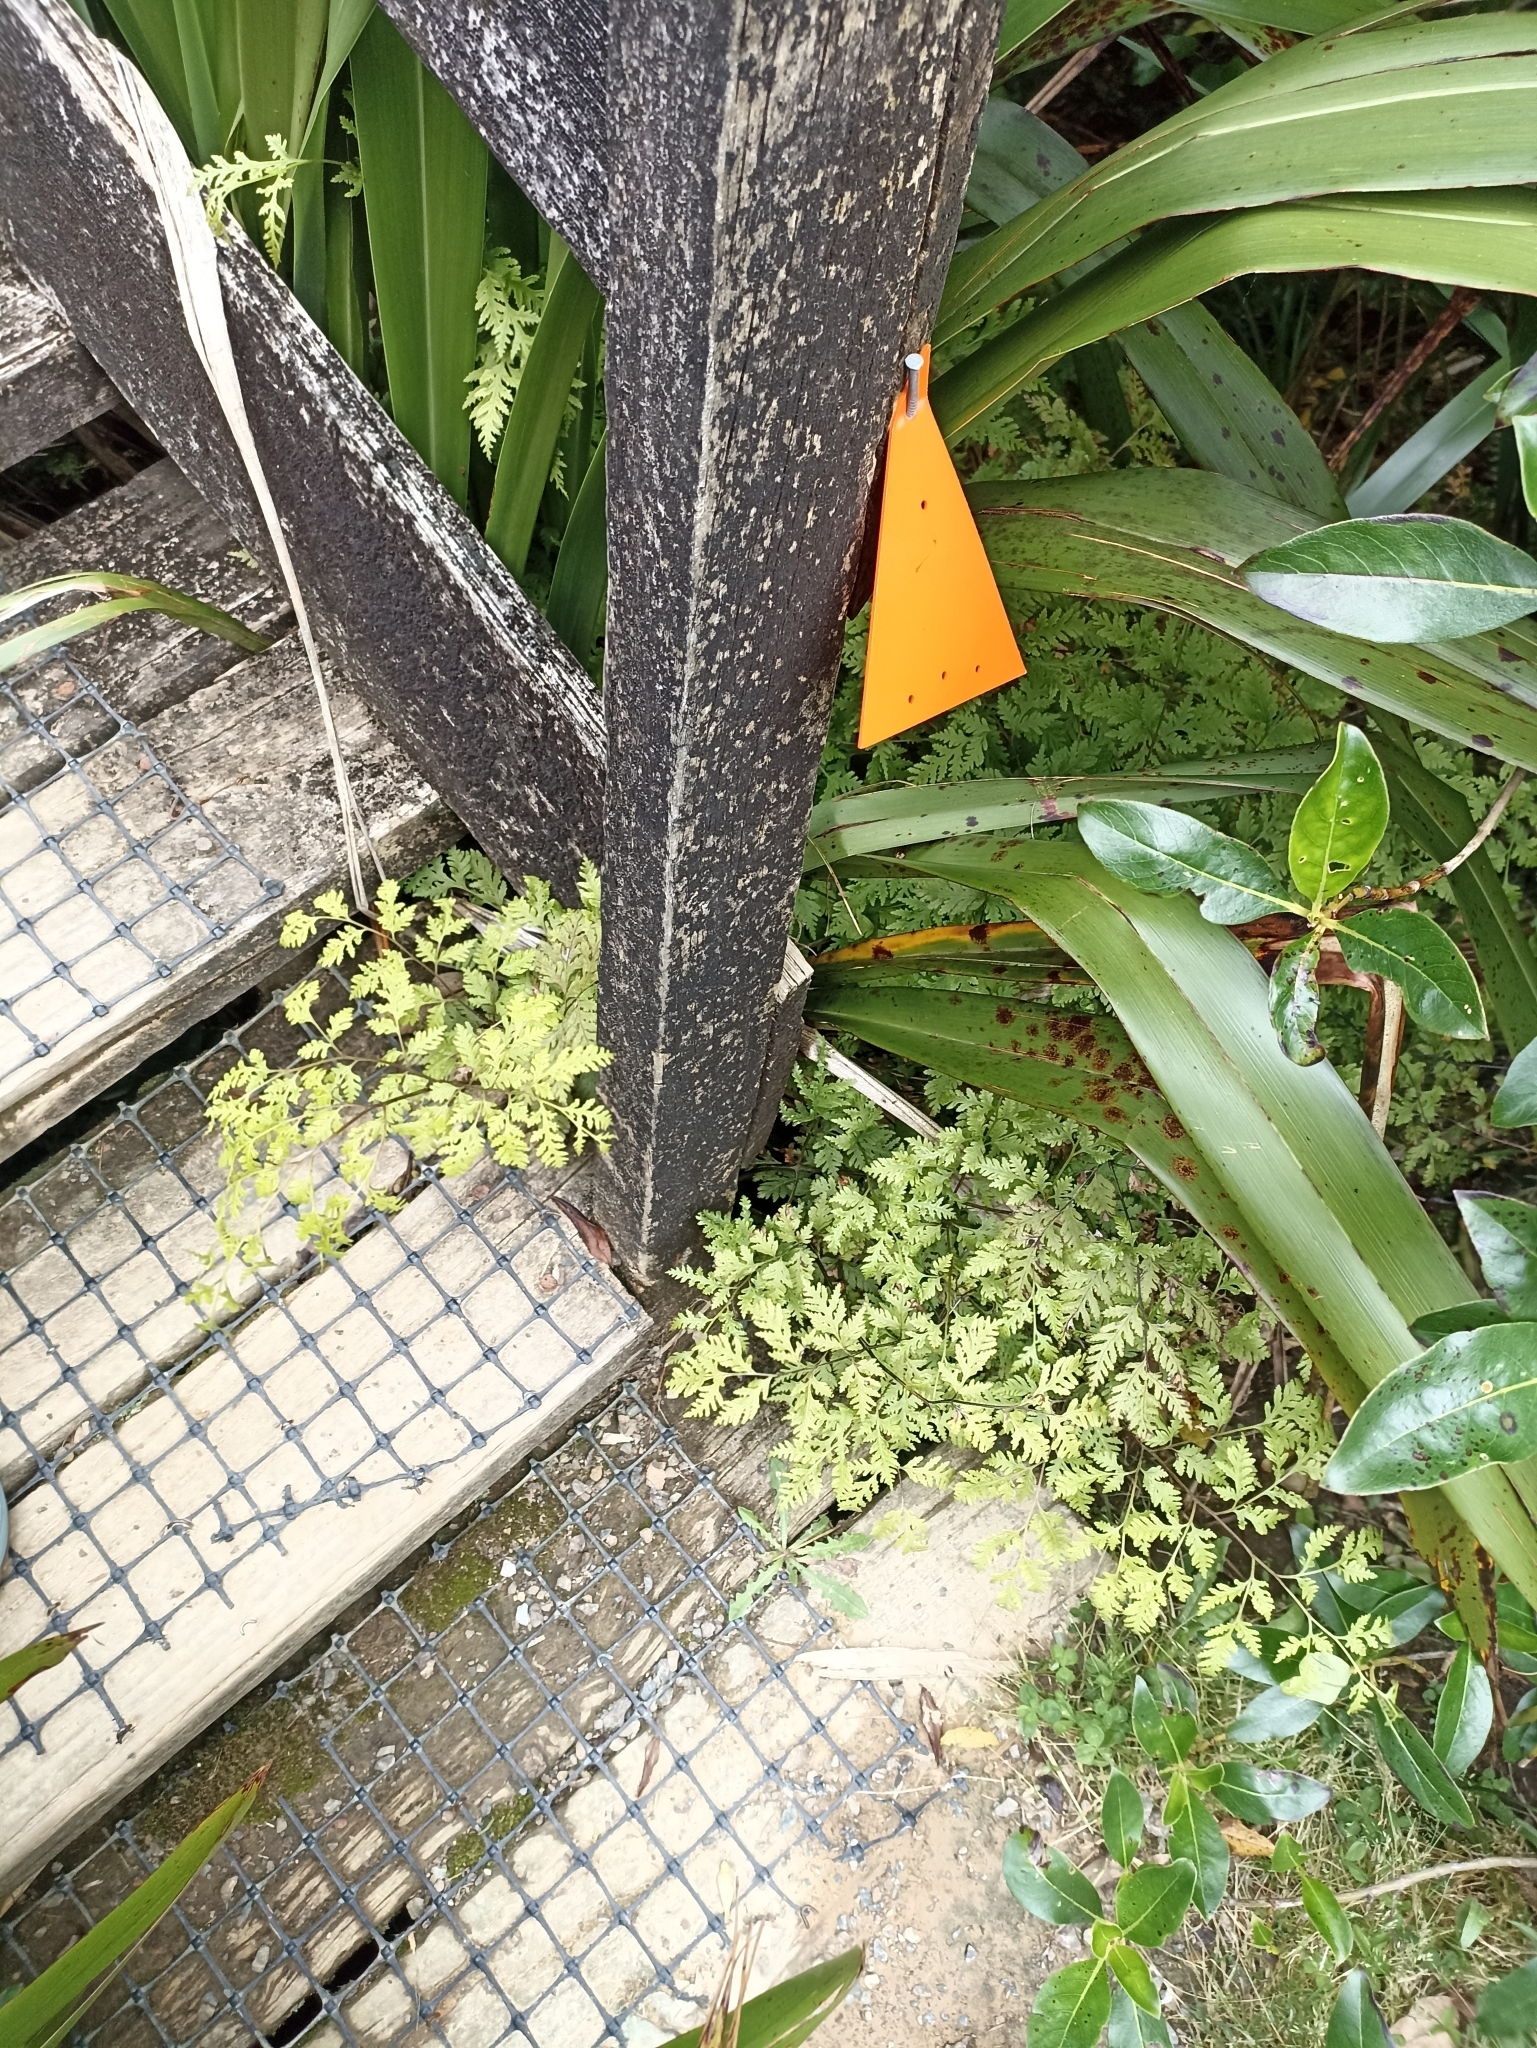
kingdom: Plantae
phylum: Tracheophyta
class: Polypodiopsida
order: Polypodiales
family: Pteridaceae
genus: Pteris
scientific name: Pteris macilenta
